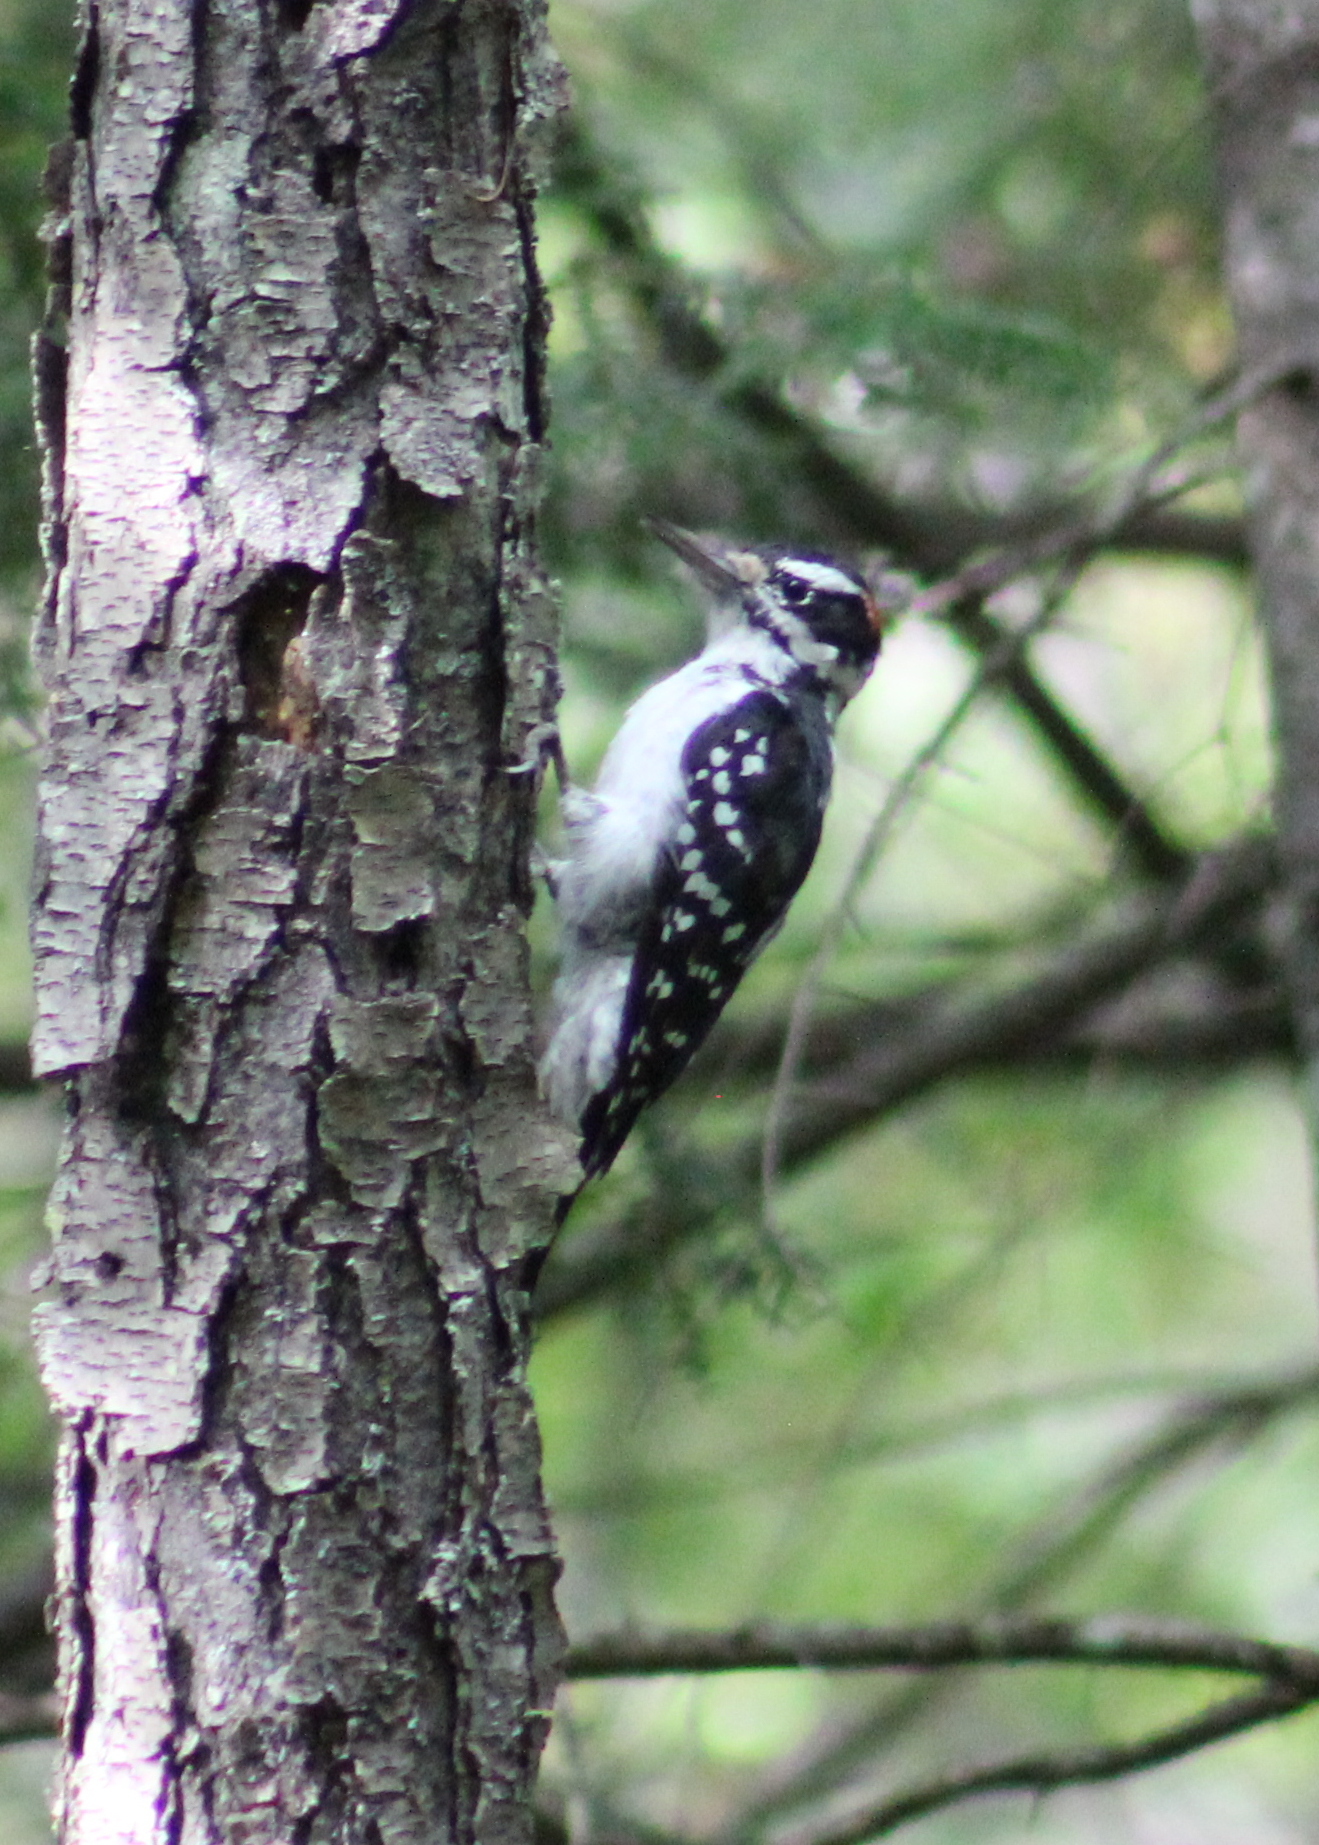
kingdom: Animalia
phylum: Chordata
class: Aves
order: Piciformes
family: Picidae
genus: Leuconotopicus
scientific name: Leuconotopicus villosus
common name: Hairy woodpecker
